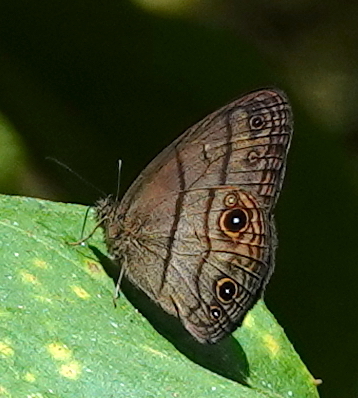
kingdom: Animalia
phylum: Arthropoda
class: Insecta
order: Lepidoptera
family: Nymphalidae
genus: Hermeuptychia
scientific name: Hermeuptychia harmonia
